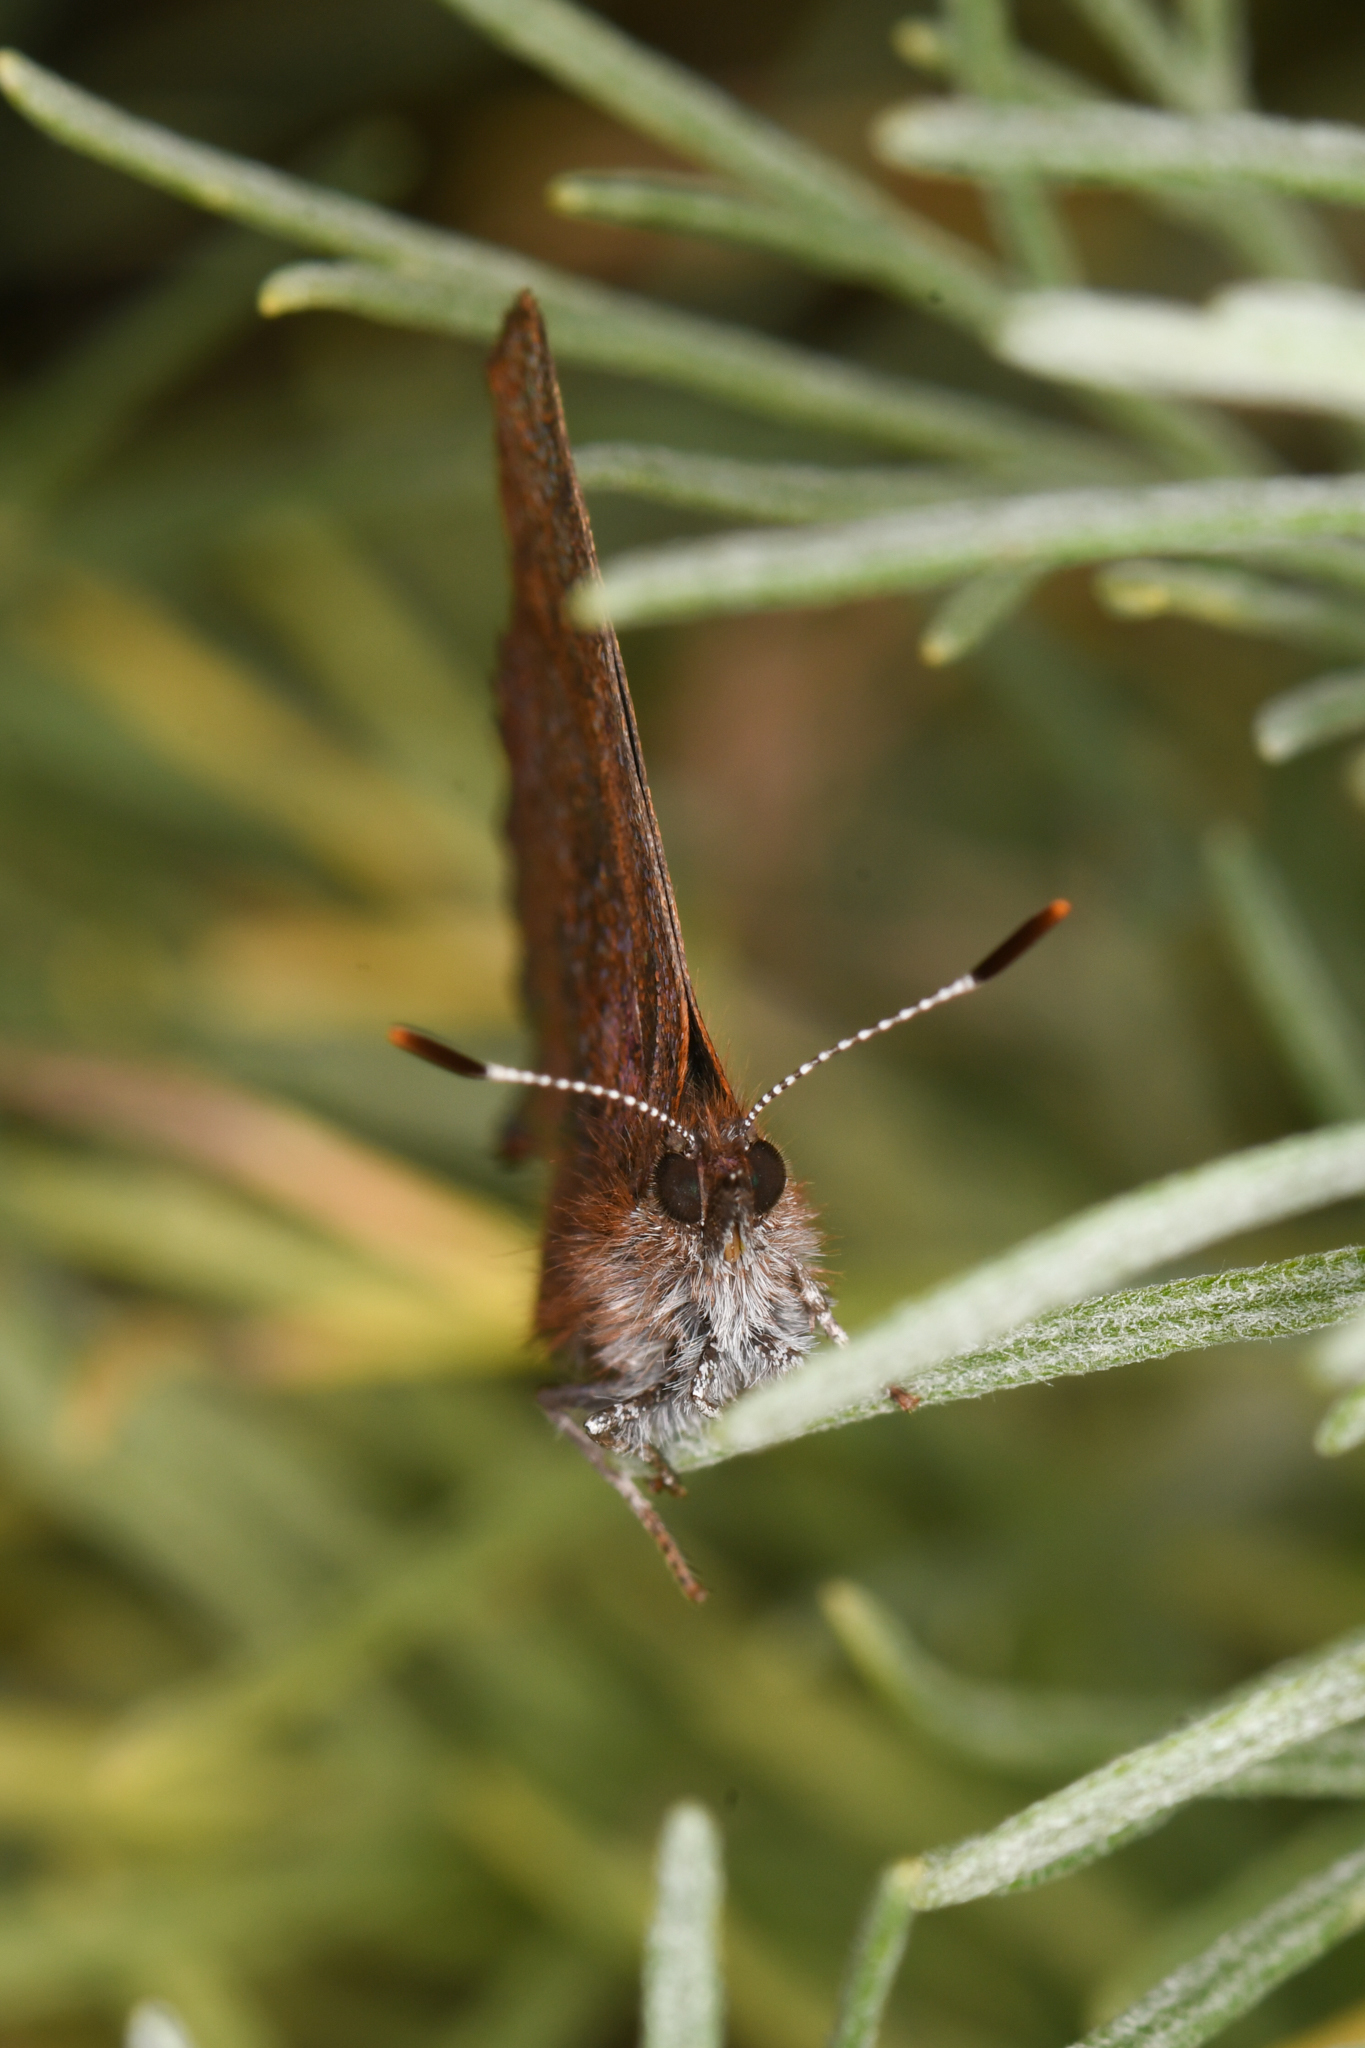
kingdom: Animalia
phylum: Arthropoda
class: Insecta
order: Lepidoptera
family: Lycaenidae
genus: Incisalia
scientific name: Incisalia irioides
